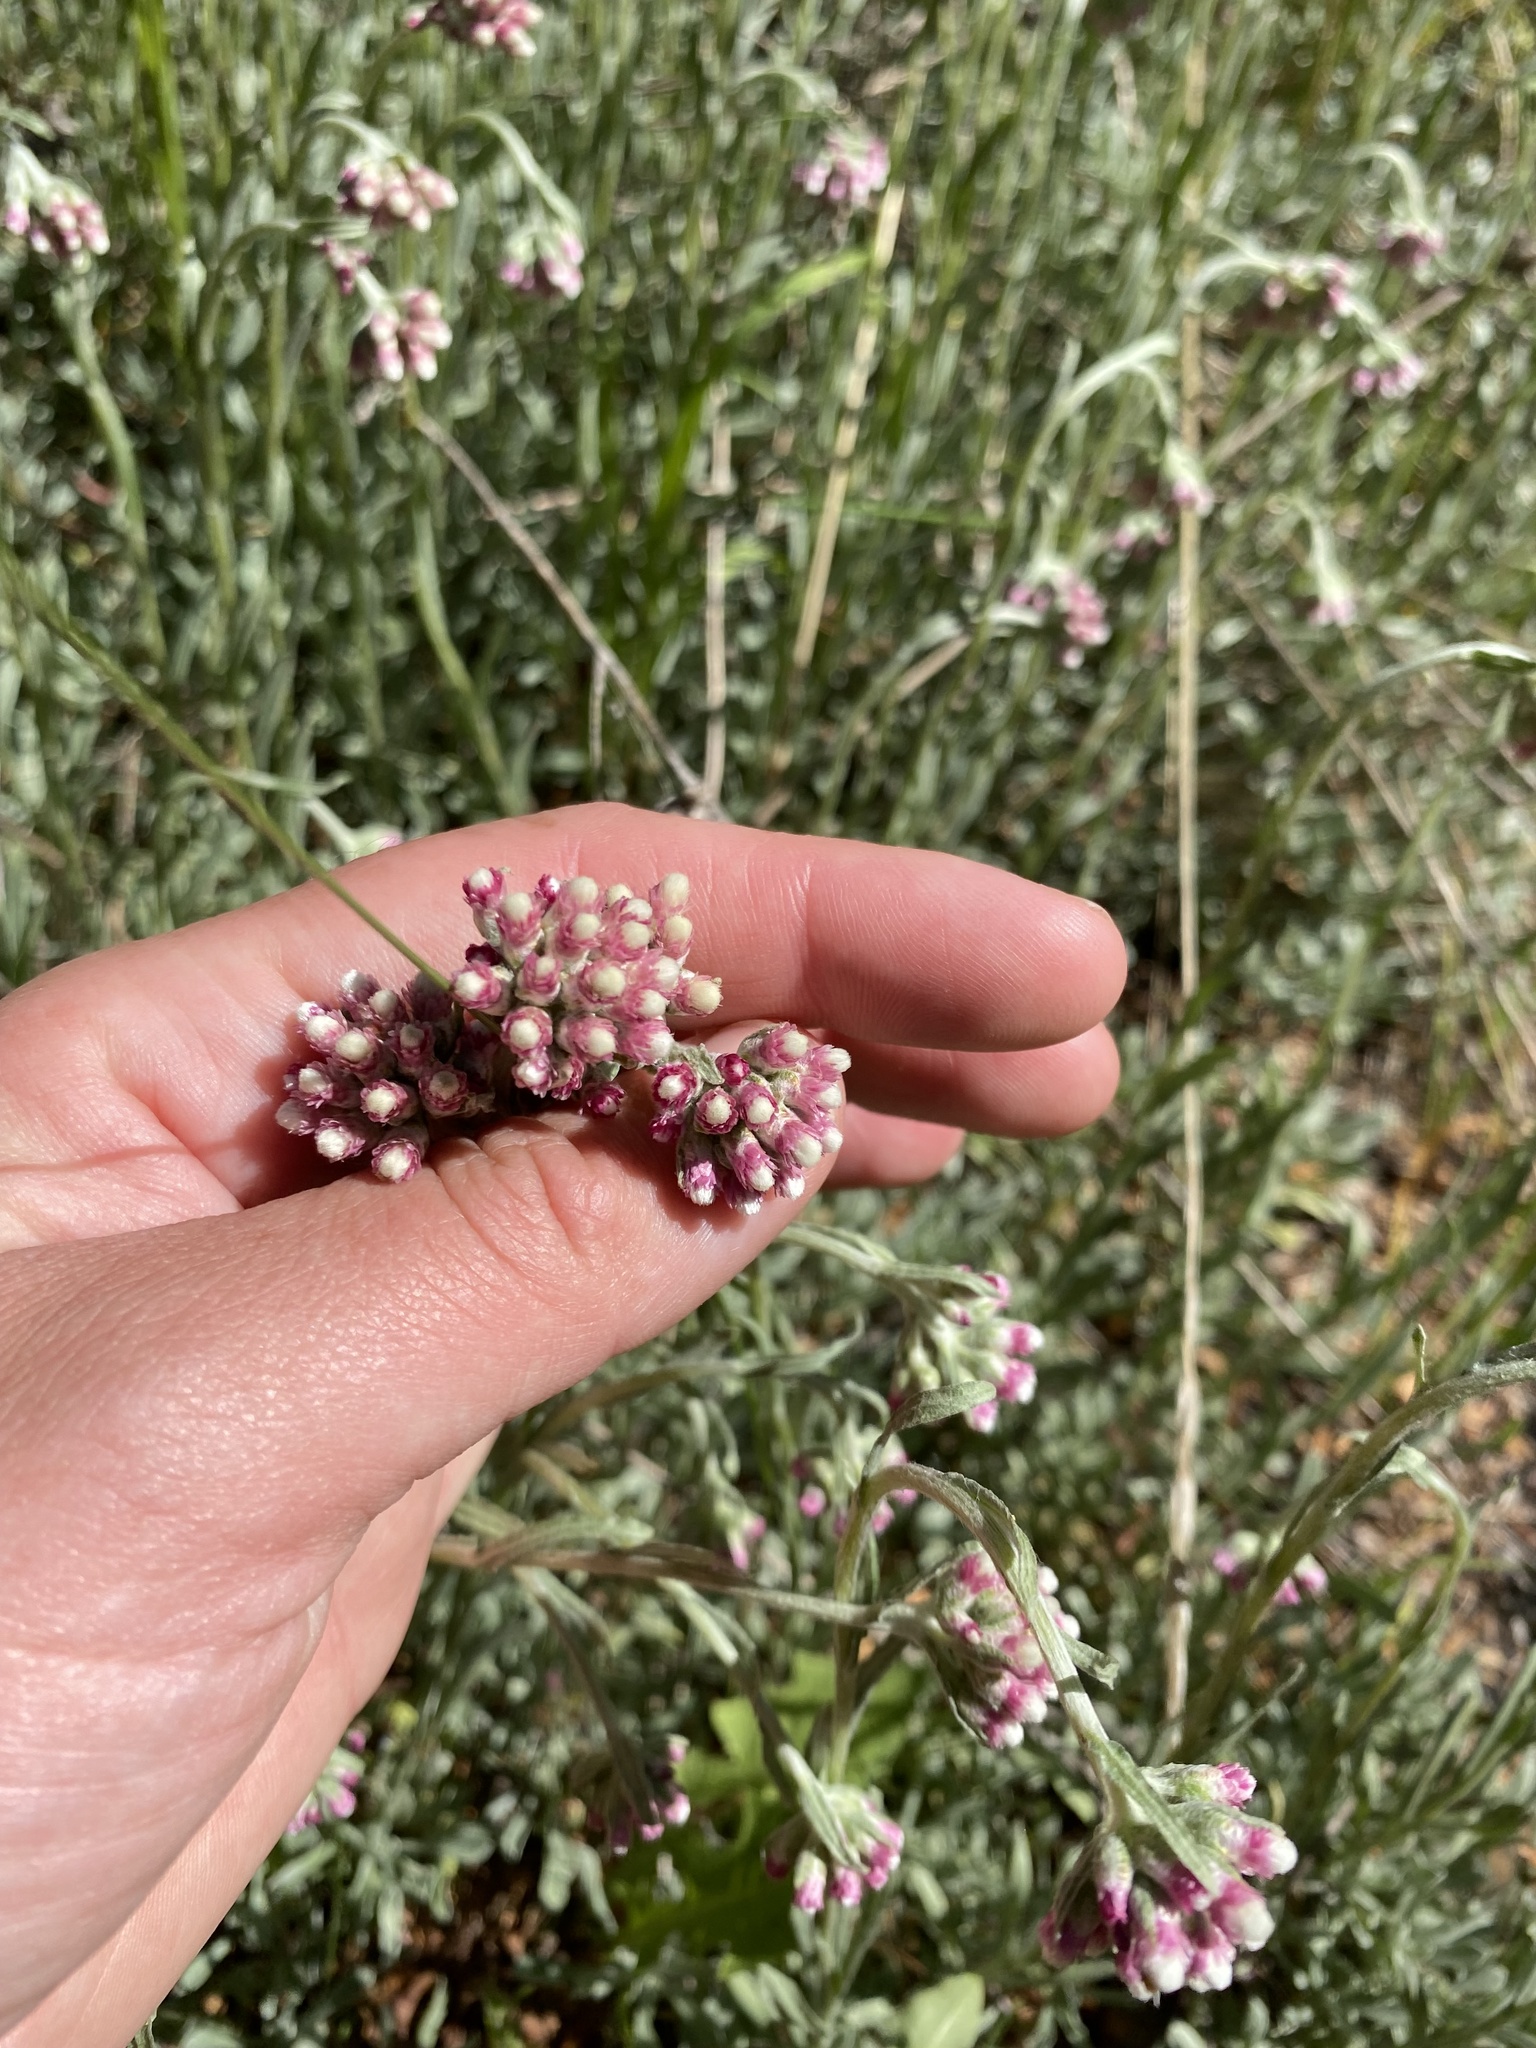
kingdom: Plantae
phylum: Tracheophyta
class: Magnoliopsida
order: Asterales
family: Asteraceae
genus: Antennaria
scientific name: Antennaria rosea
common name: Rosy pussytoes
